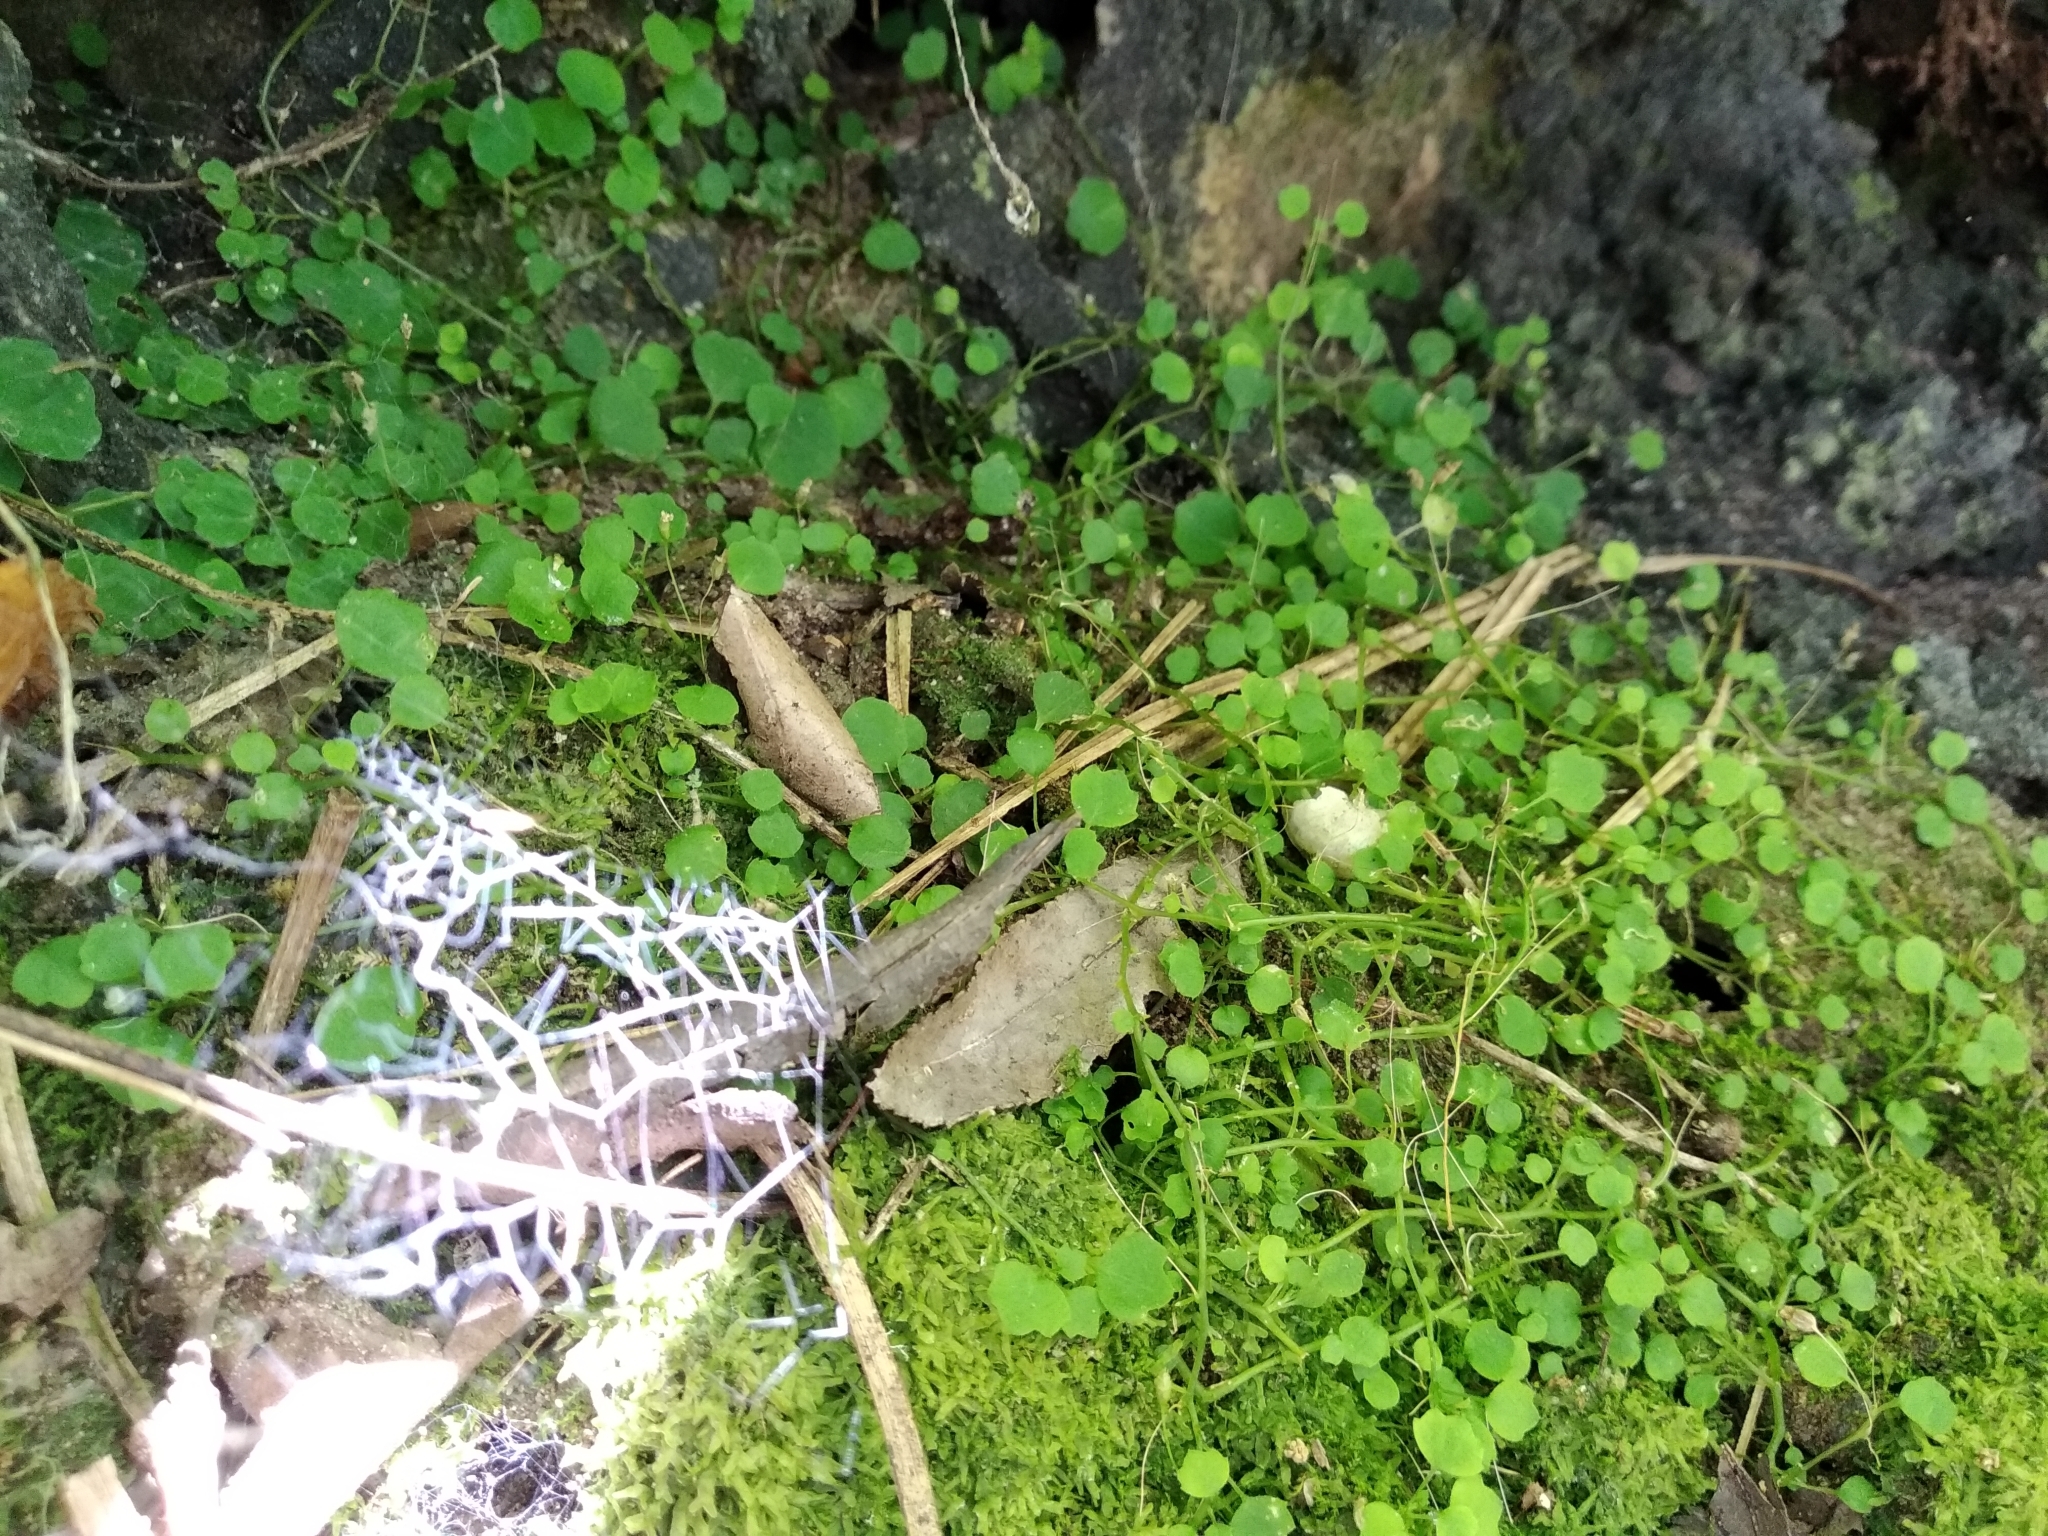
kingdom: Plantae
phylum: Tracheophyta
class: Magnoliopsida
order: Asterales
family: Campanulaceae
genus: Wimmerella
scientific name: Wimmerella pygmaea
